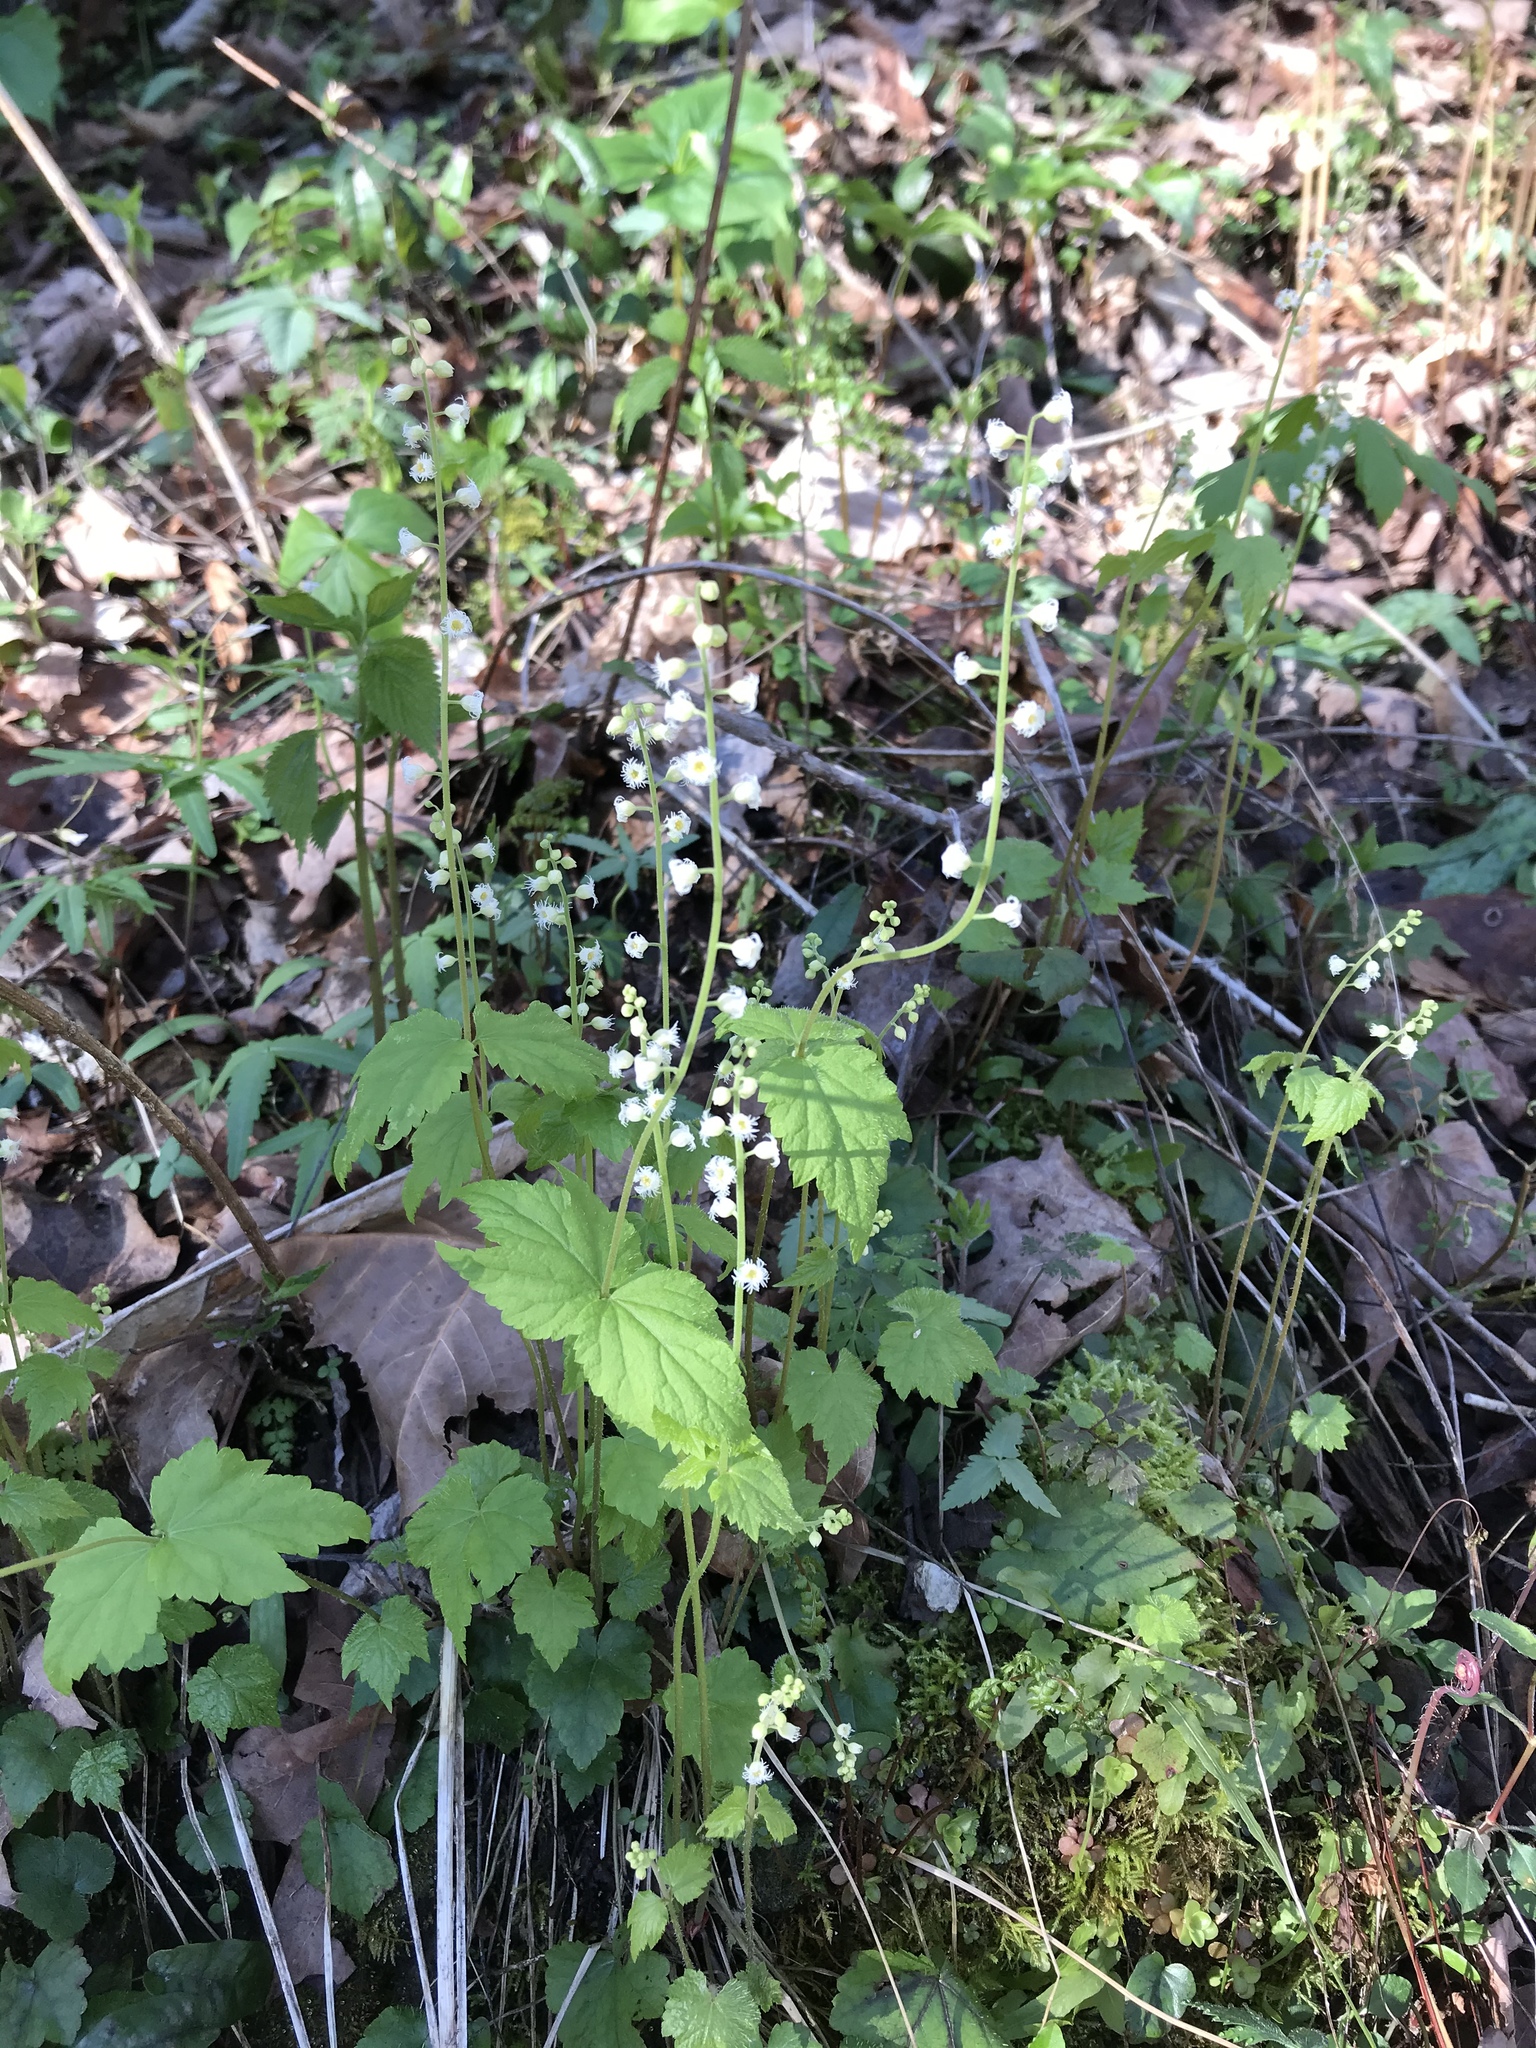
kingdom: Plantae
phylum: Tracheophyta
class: Magnoliopsida
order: Saxifragales
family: Saxifragaceae
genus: Mitella
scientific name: Mitella diphylla
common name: Coolwort
